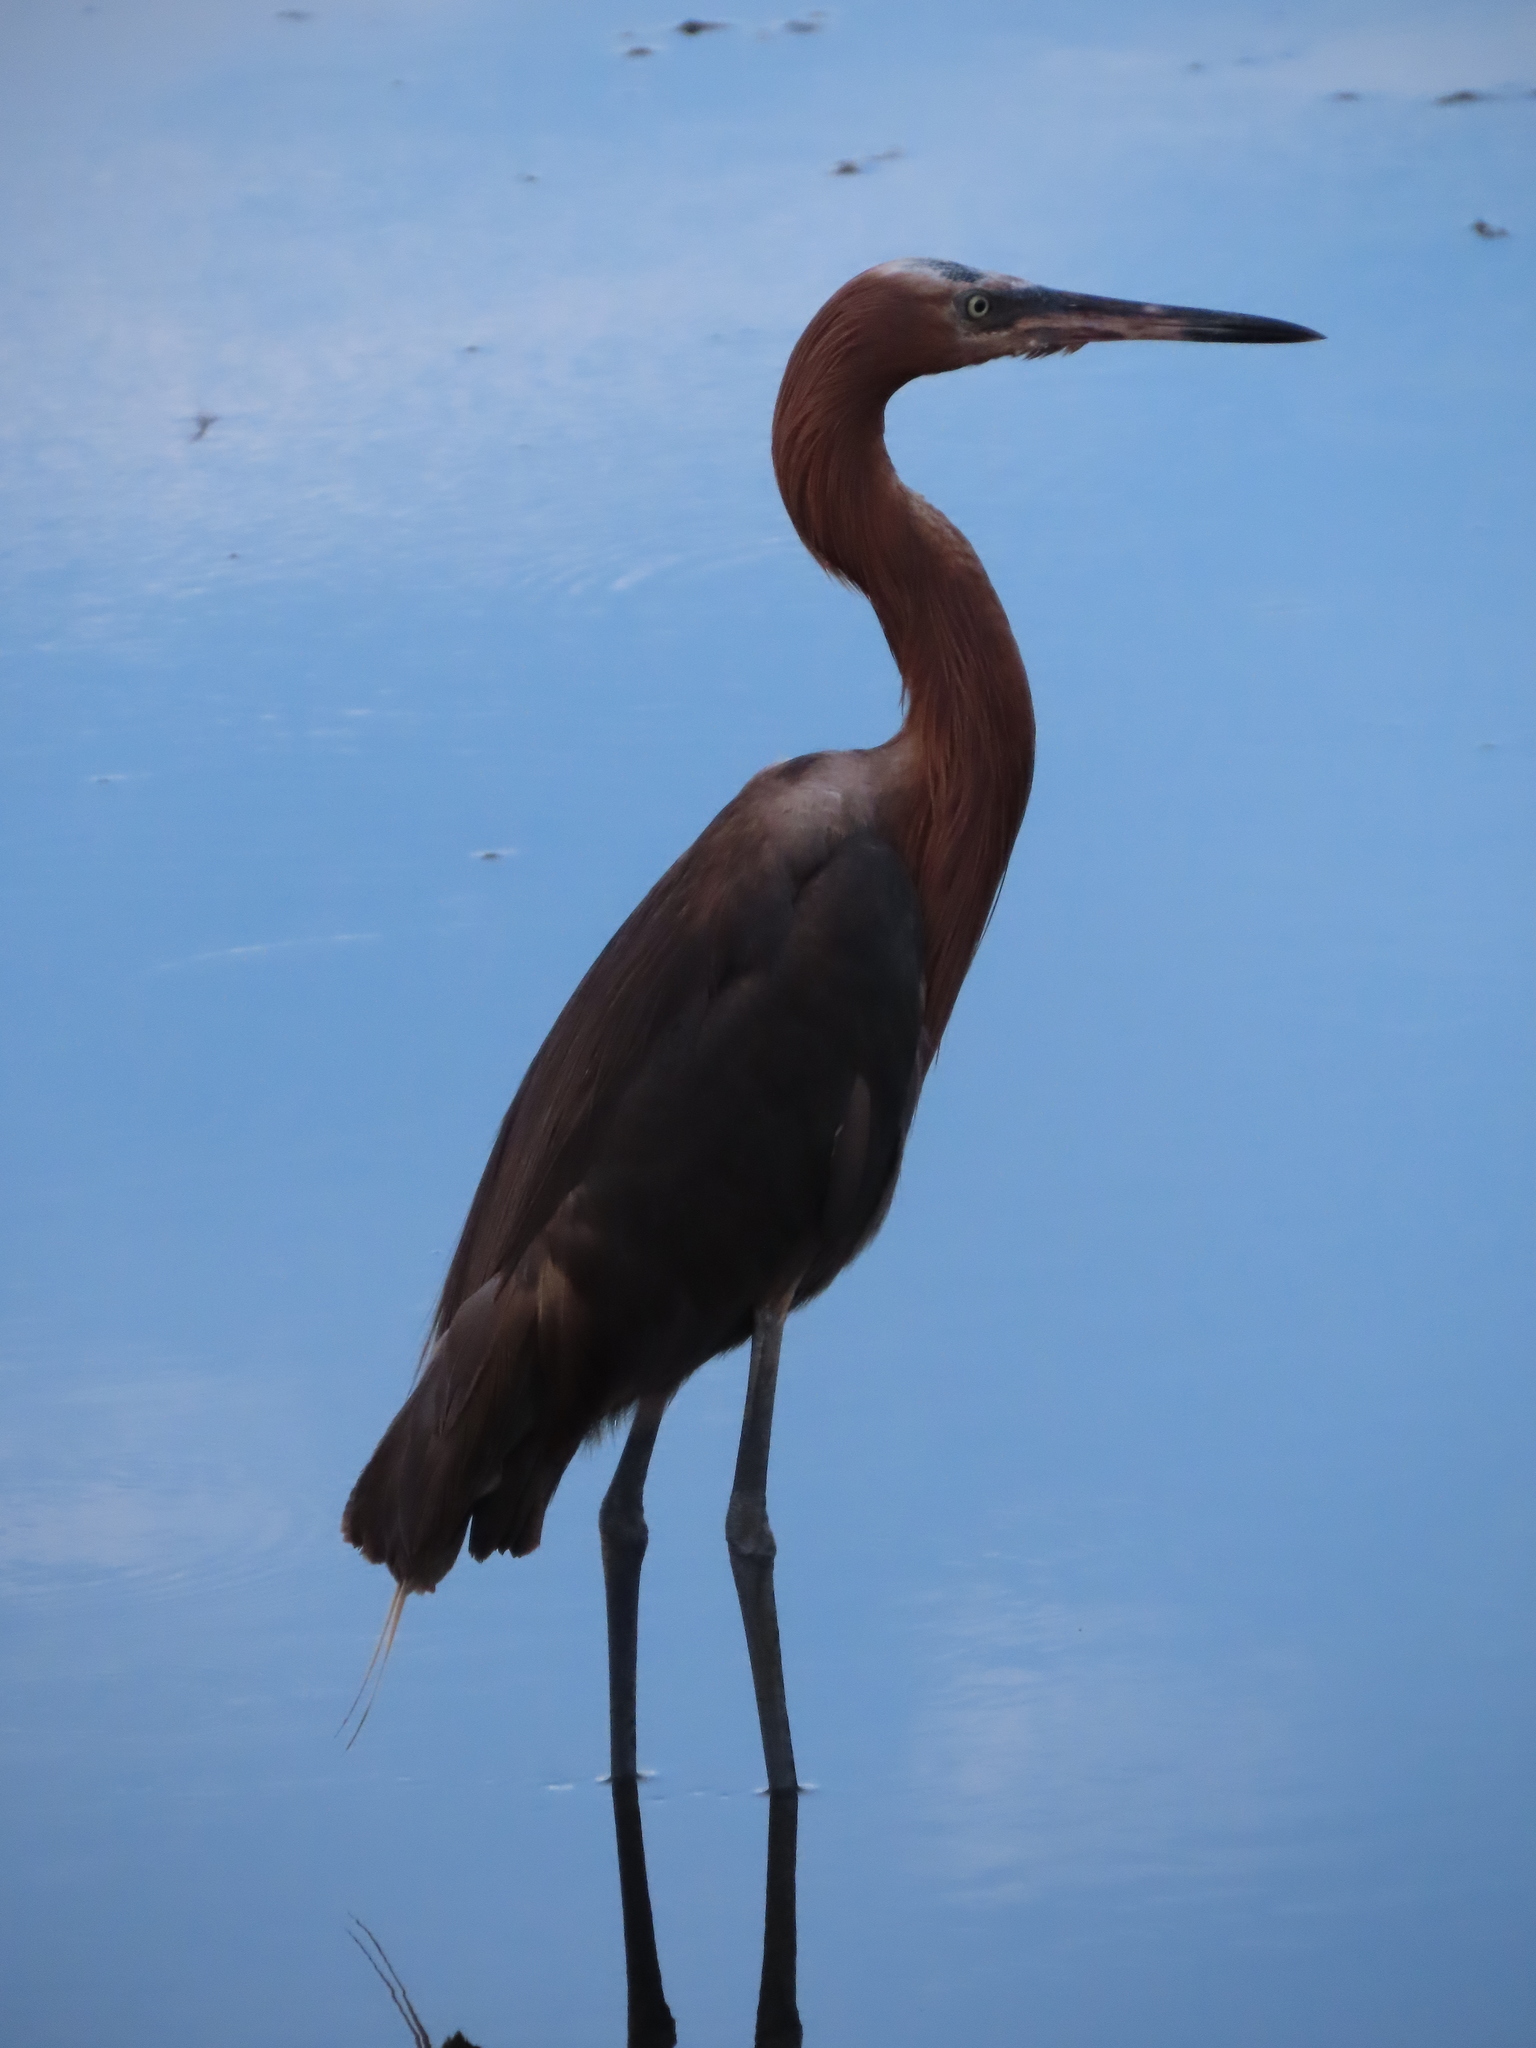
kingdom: Animalia
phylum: Chordata
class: Aves
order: Pelecaniformes
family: Ardeidae
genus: Egretta
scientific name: Egretta rufescens
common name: Reddish egret
